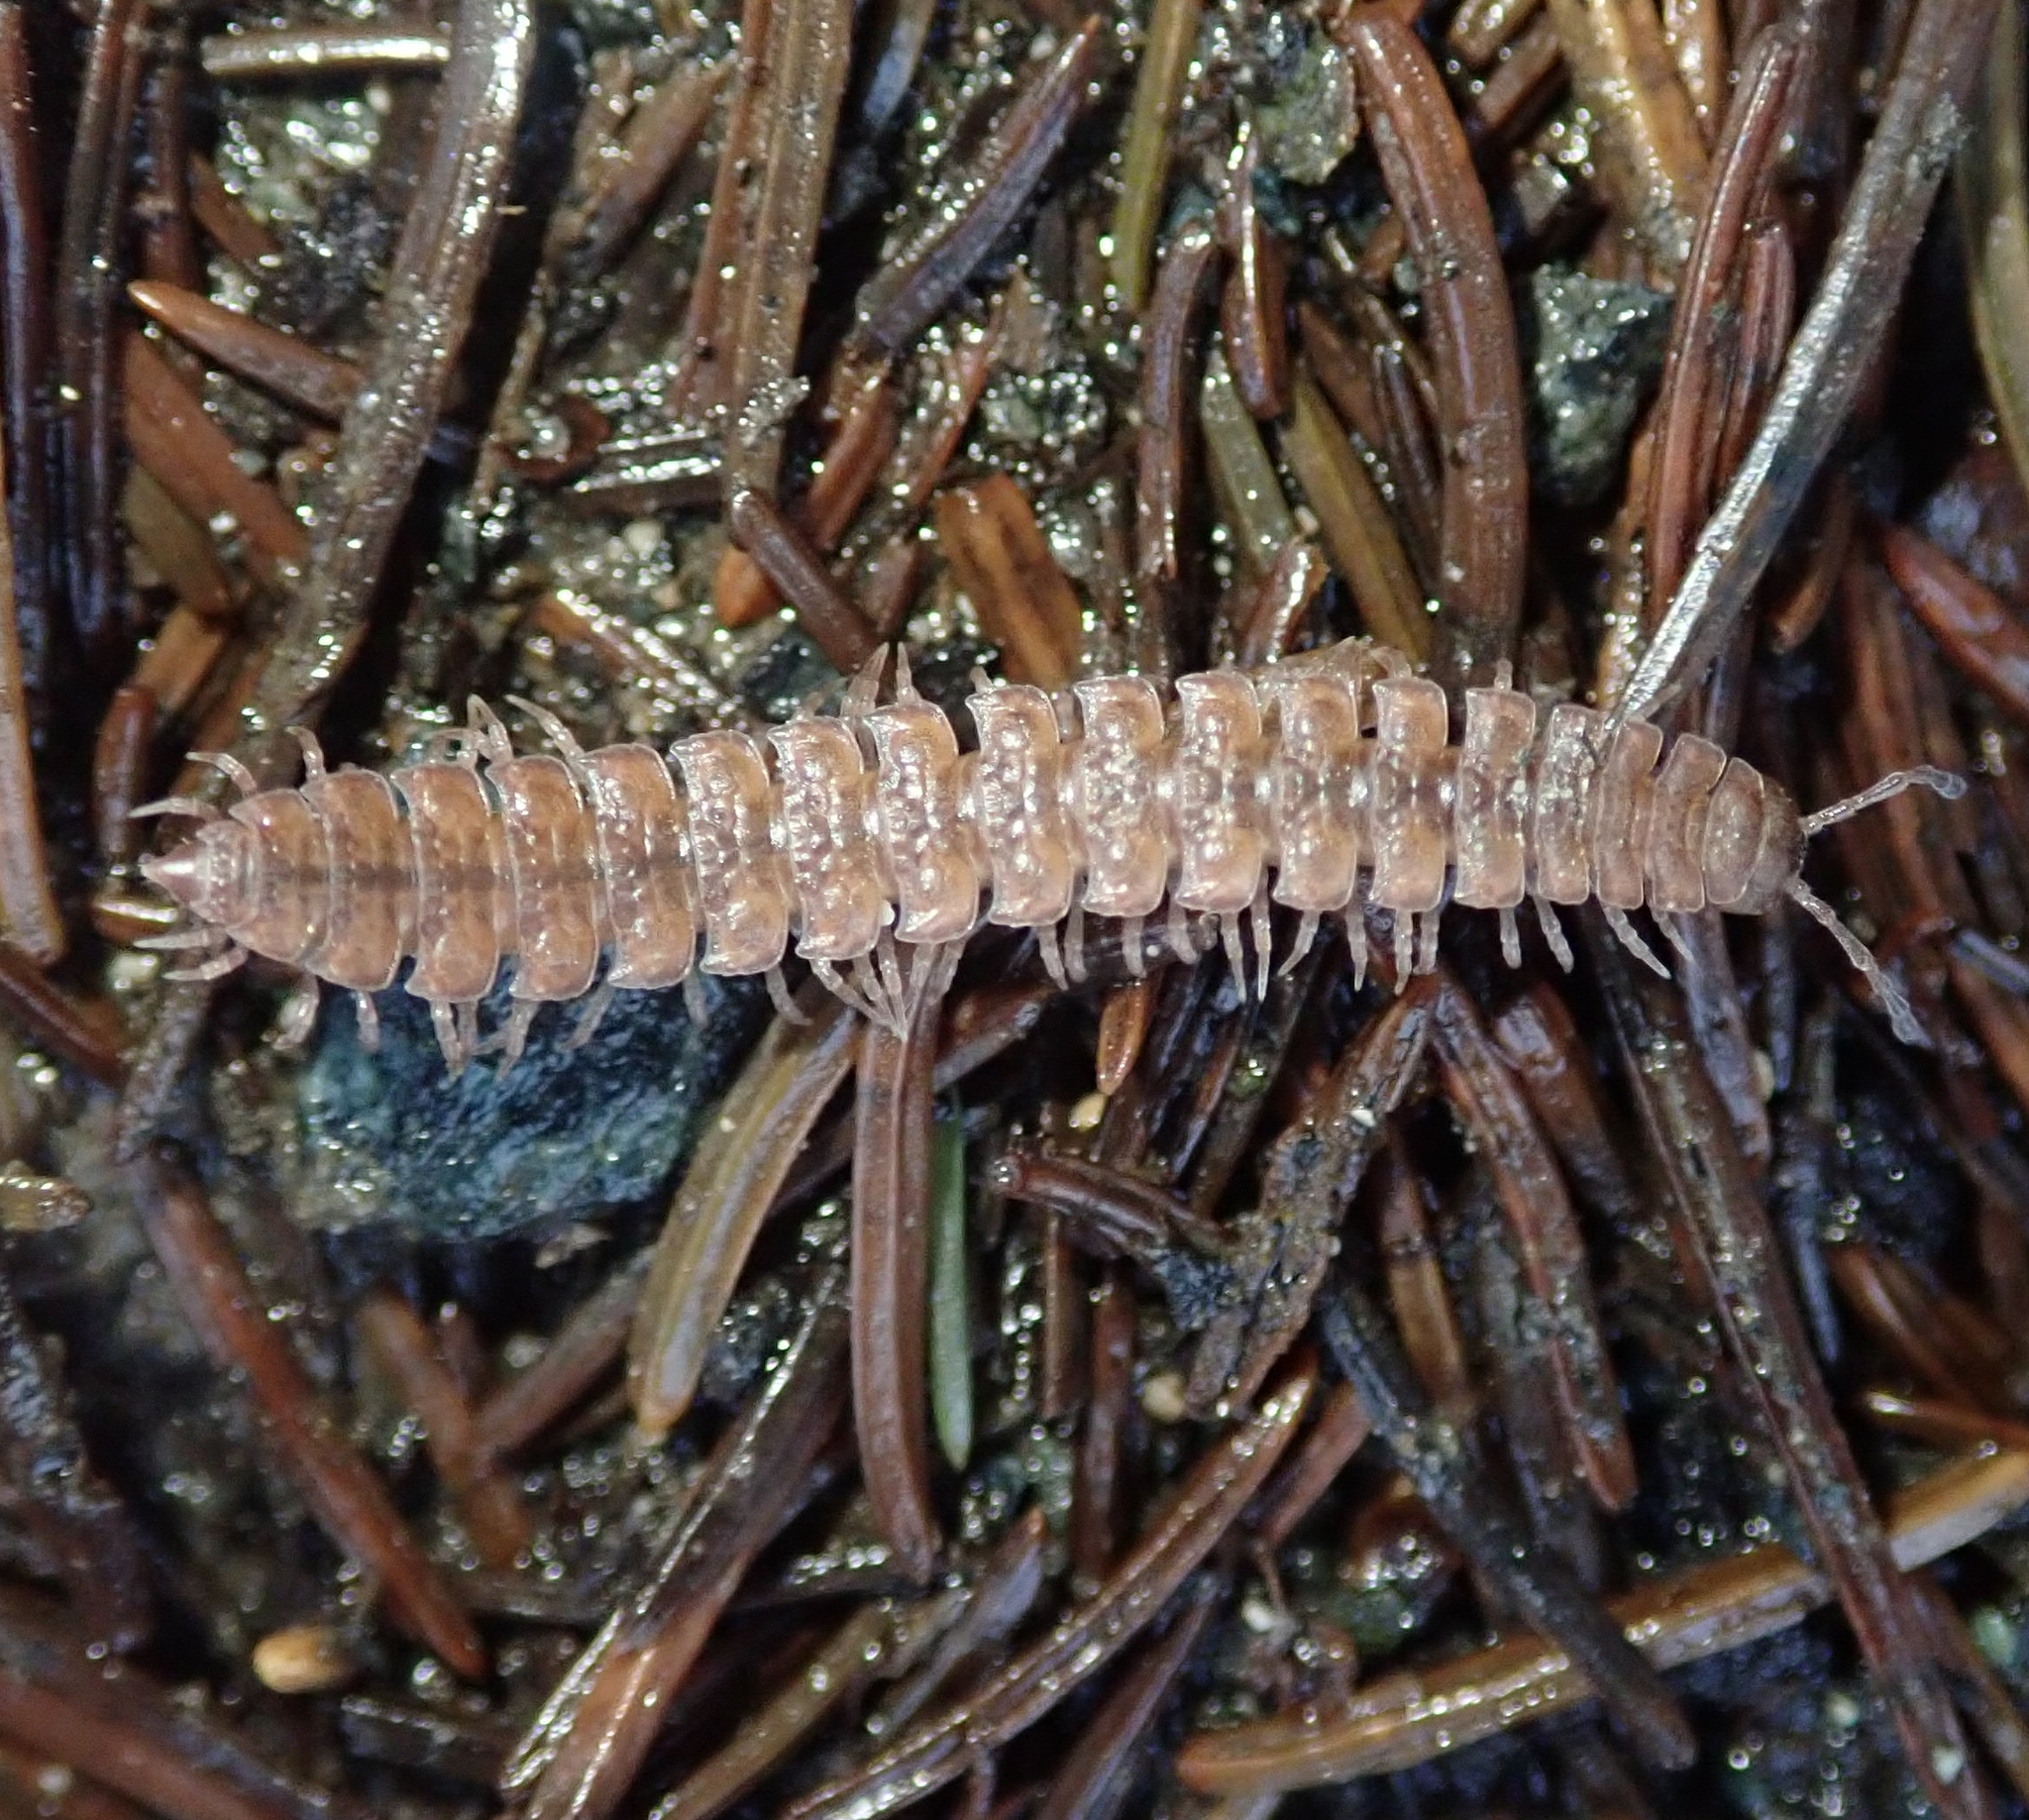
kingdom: Animalia
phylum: Arthropoda
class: Diplopoda
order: Polydesmida
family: Polydesmidae
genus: Polydesmus
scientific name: Polydesmus angustus
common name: Flat millipede
